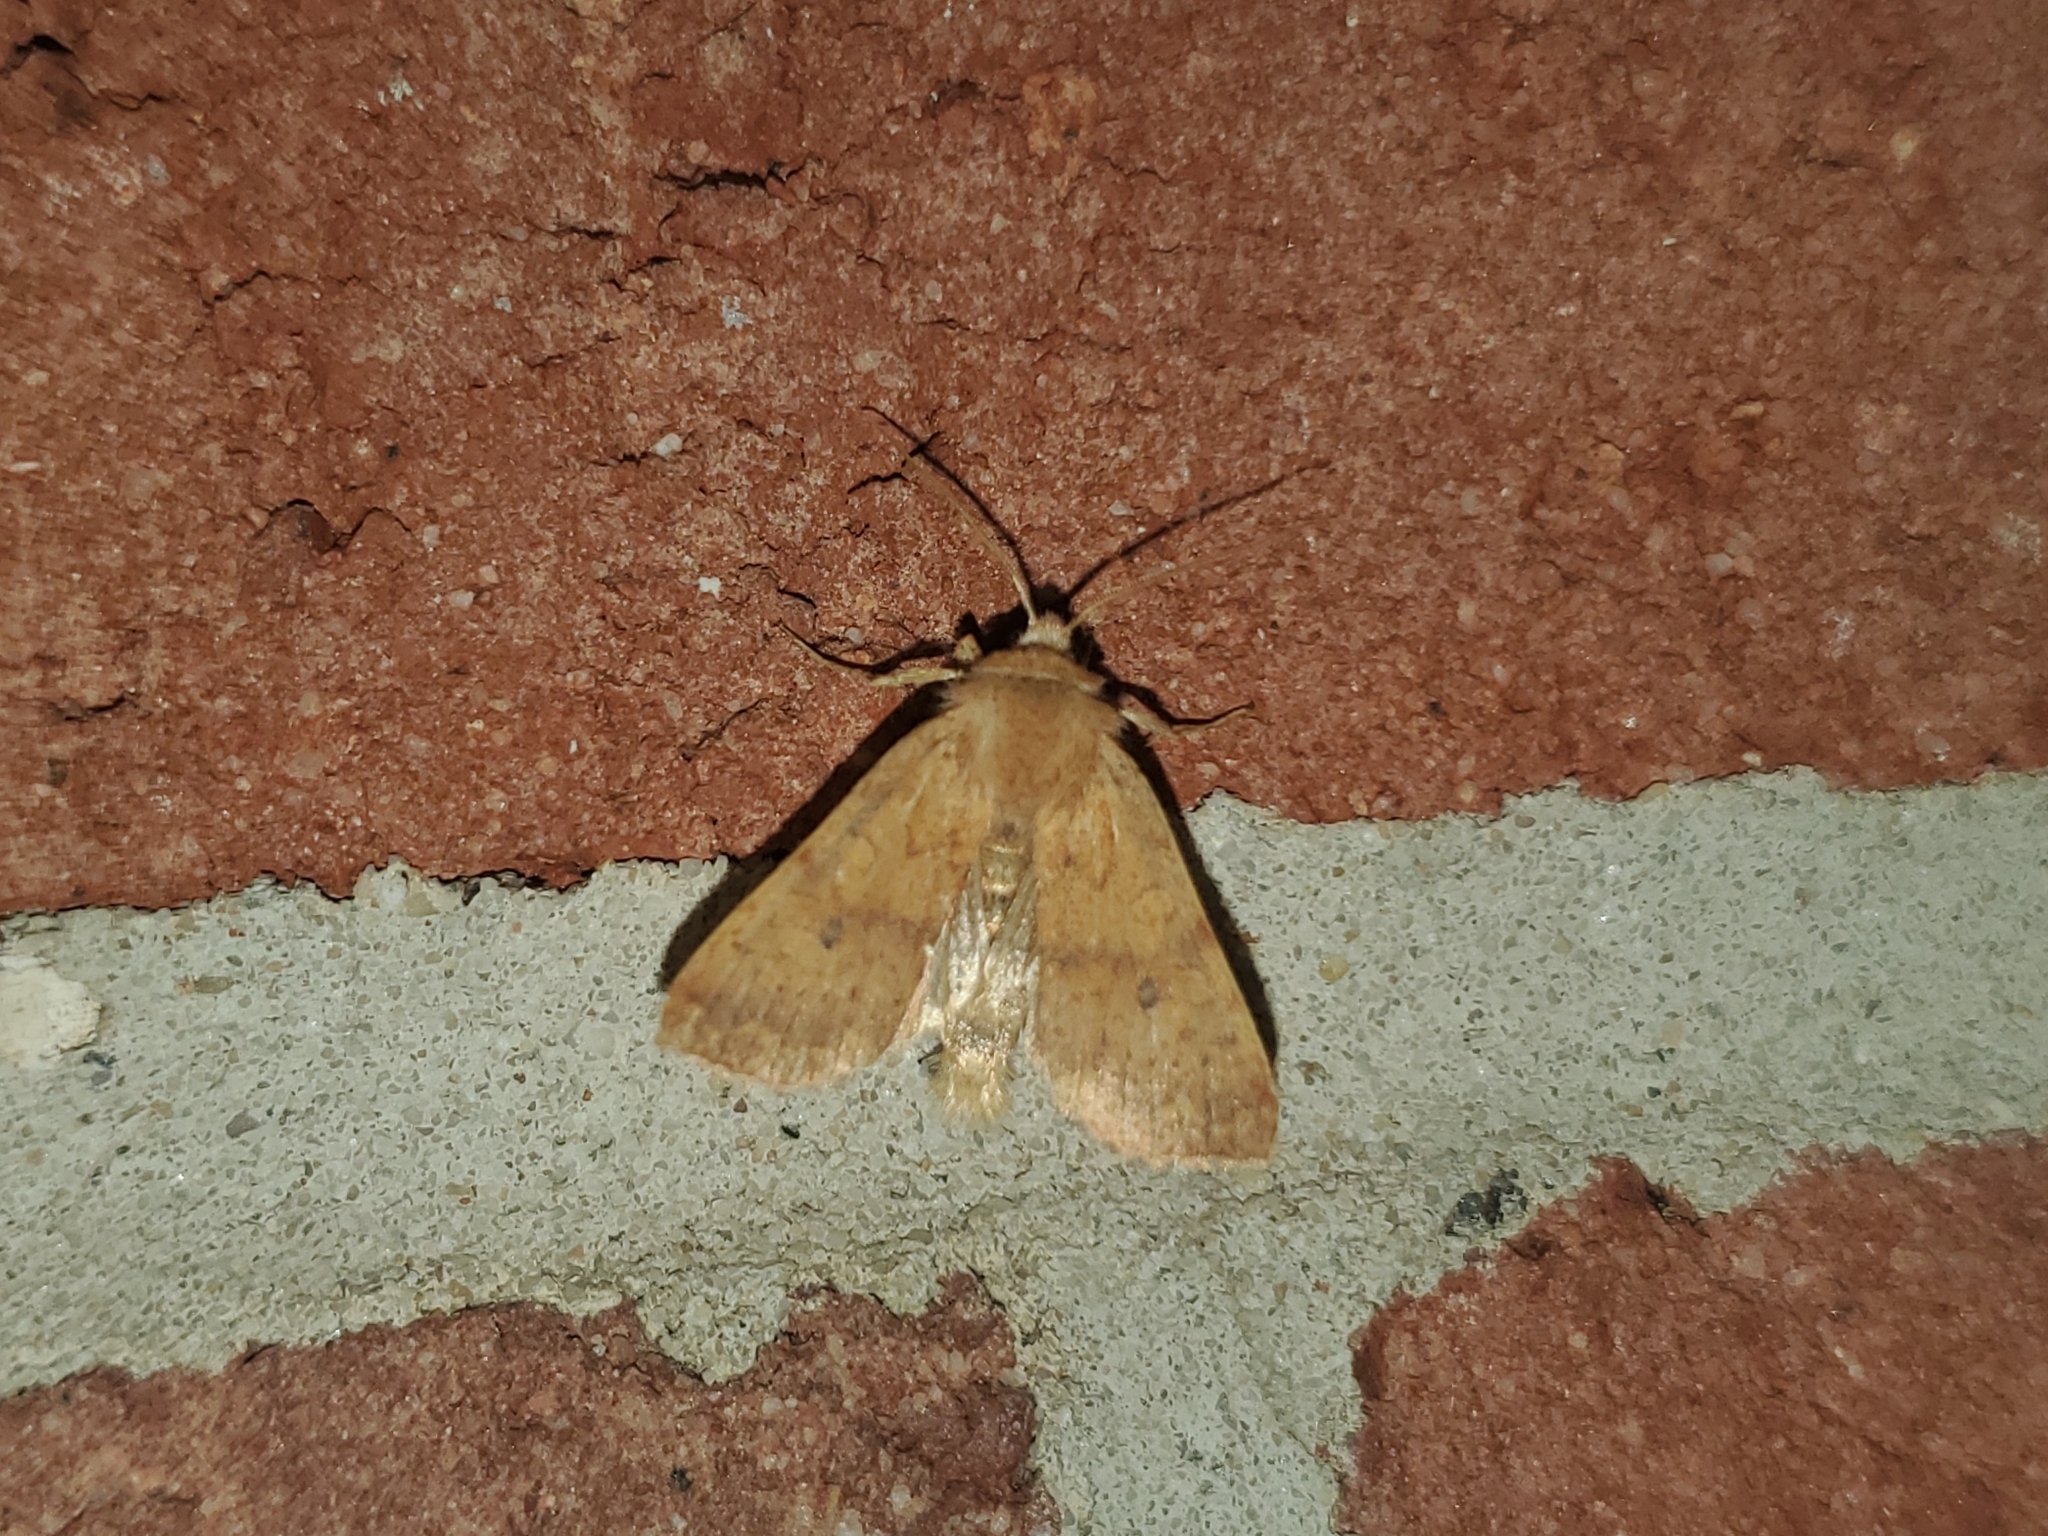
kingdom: Animalia
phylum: Arthropoda
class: Insecta
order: Lepidoptera
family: Noctuidae
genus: Agrochola
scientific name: Agrochola bicolorago
